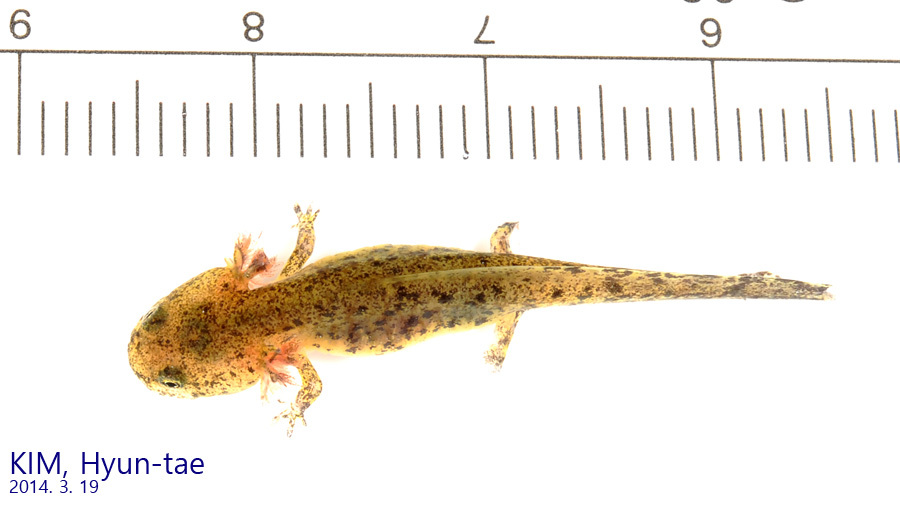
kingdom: Animalia
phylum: Chordata
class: Amphibia
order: Caudata
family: Hynobiidae
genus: Hynobius
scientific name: Hynobius leechii
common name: Gensan salamander
